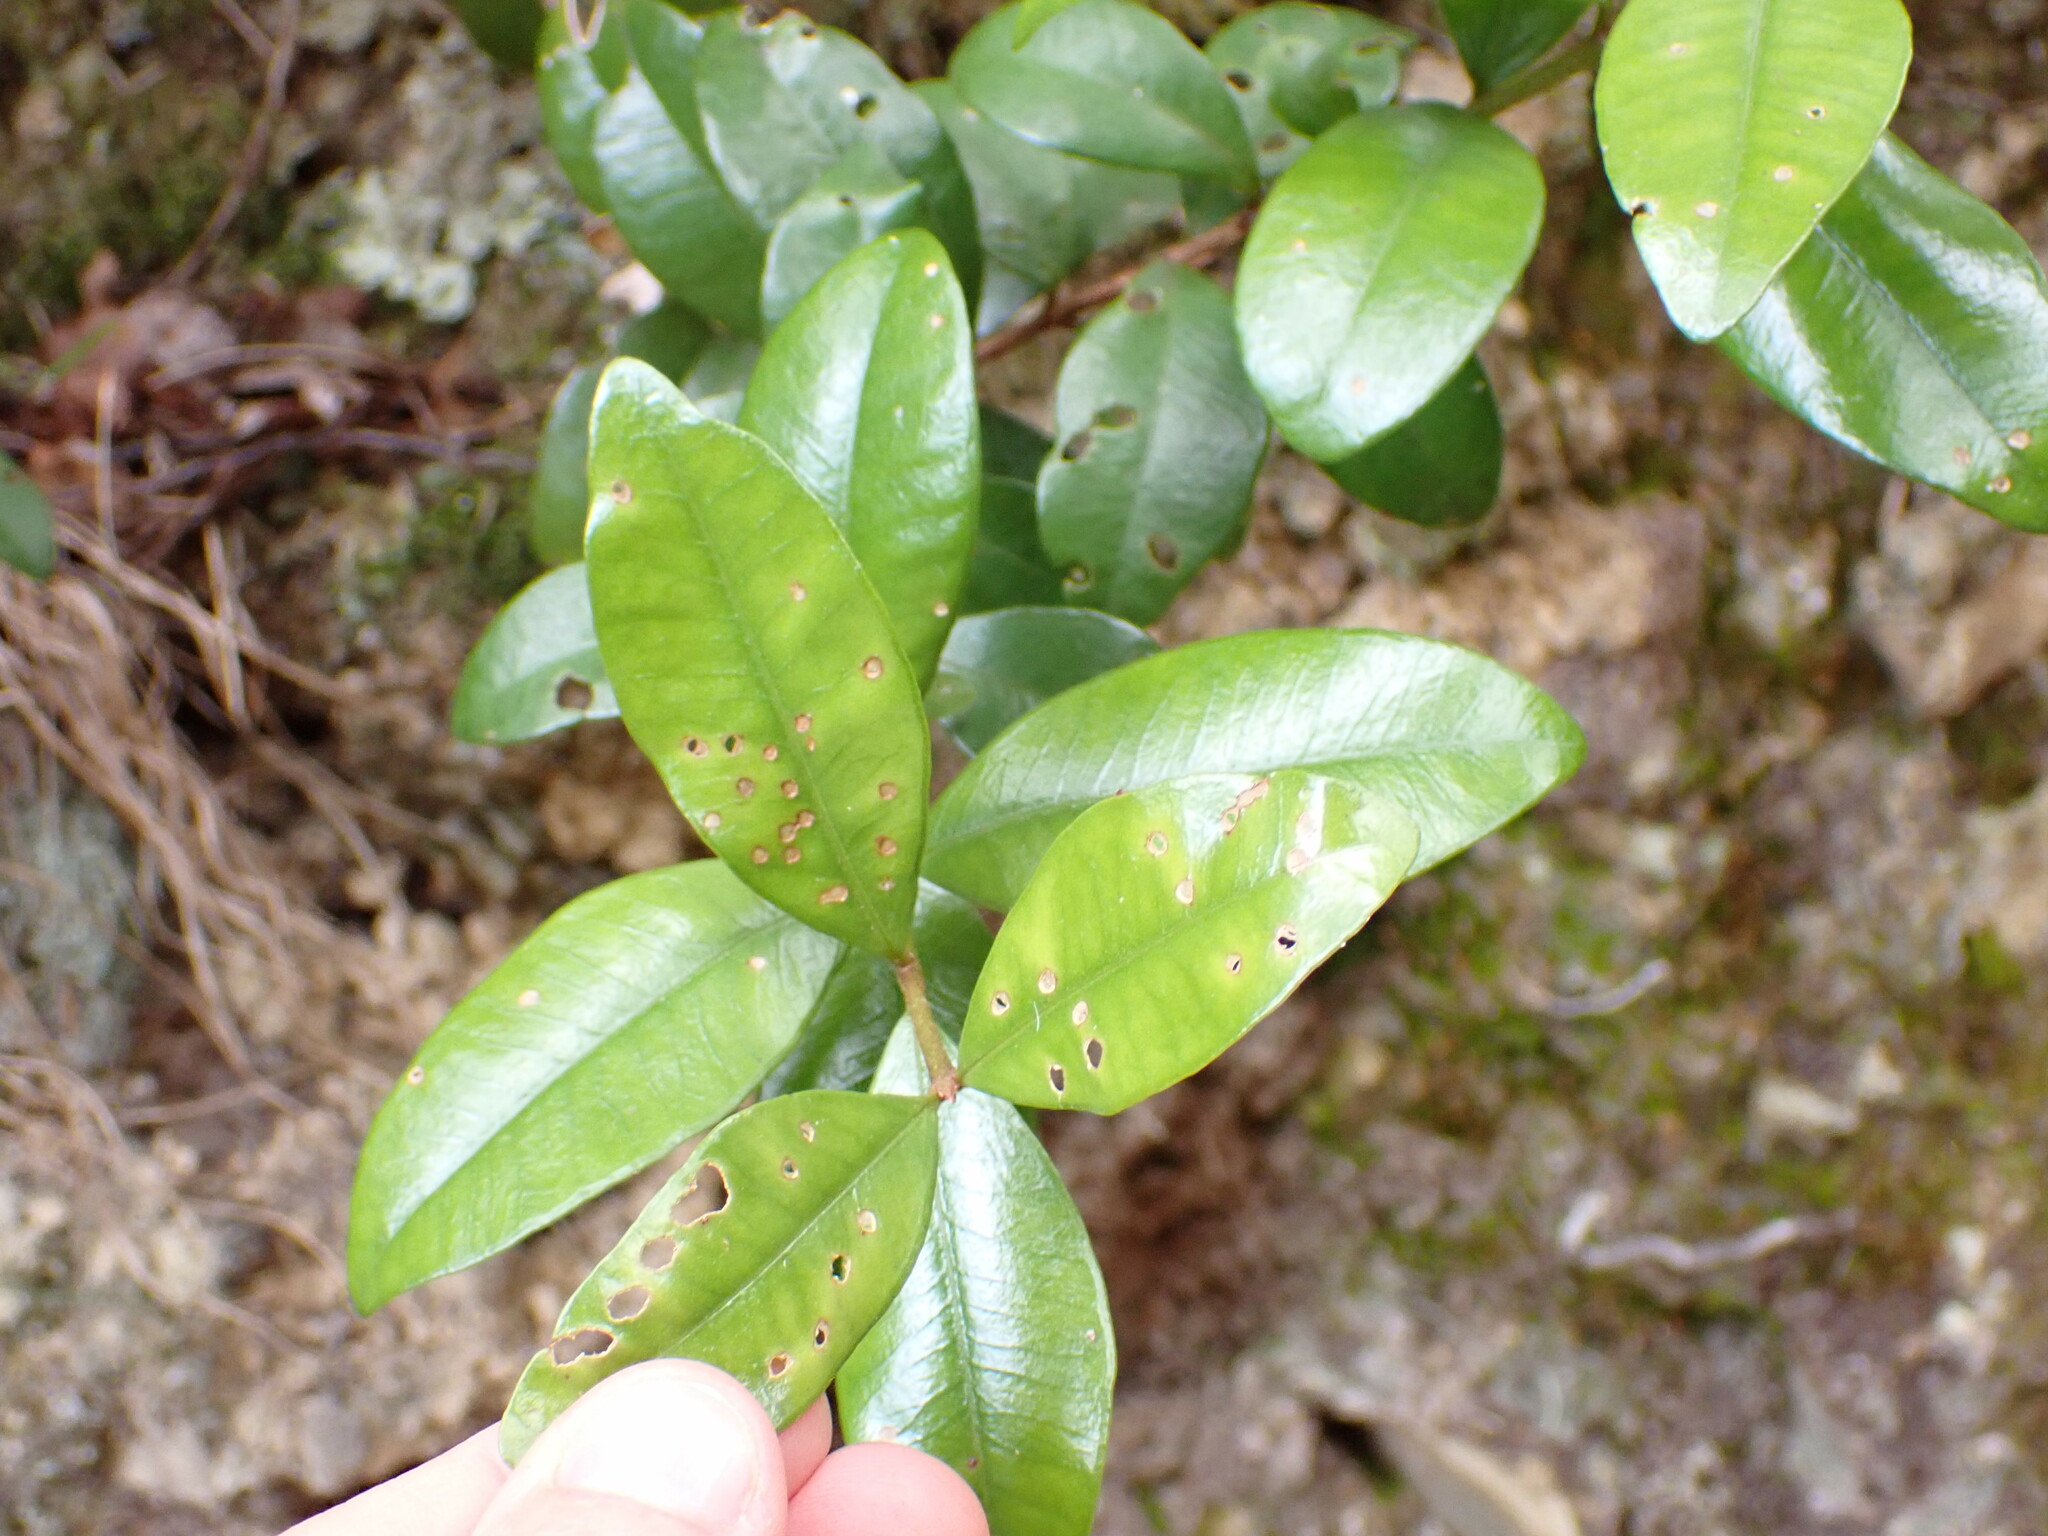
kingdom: Plantae
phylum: Tracheophyta
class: Magnoliopsida
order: Myrtales
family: Myrtaceae
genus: Metrosideros
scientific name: Metrosideros fulgens
